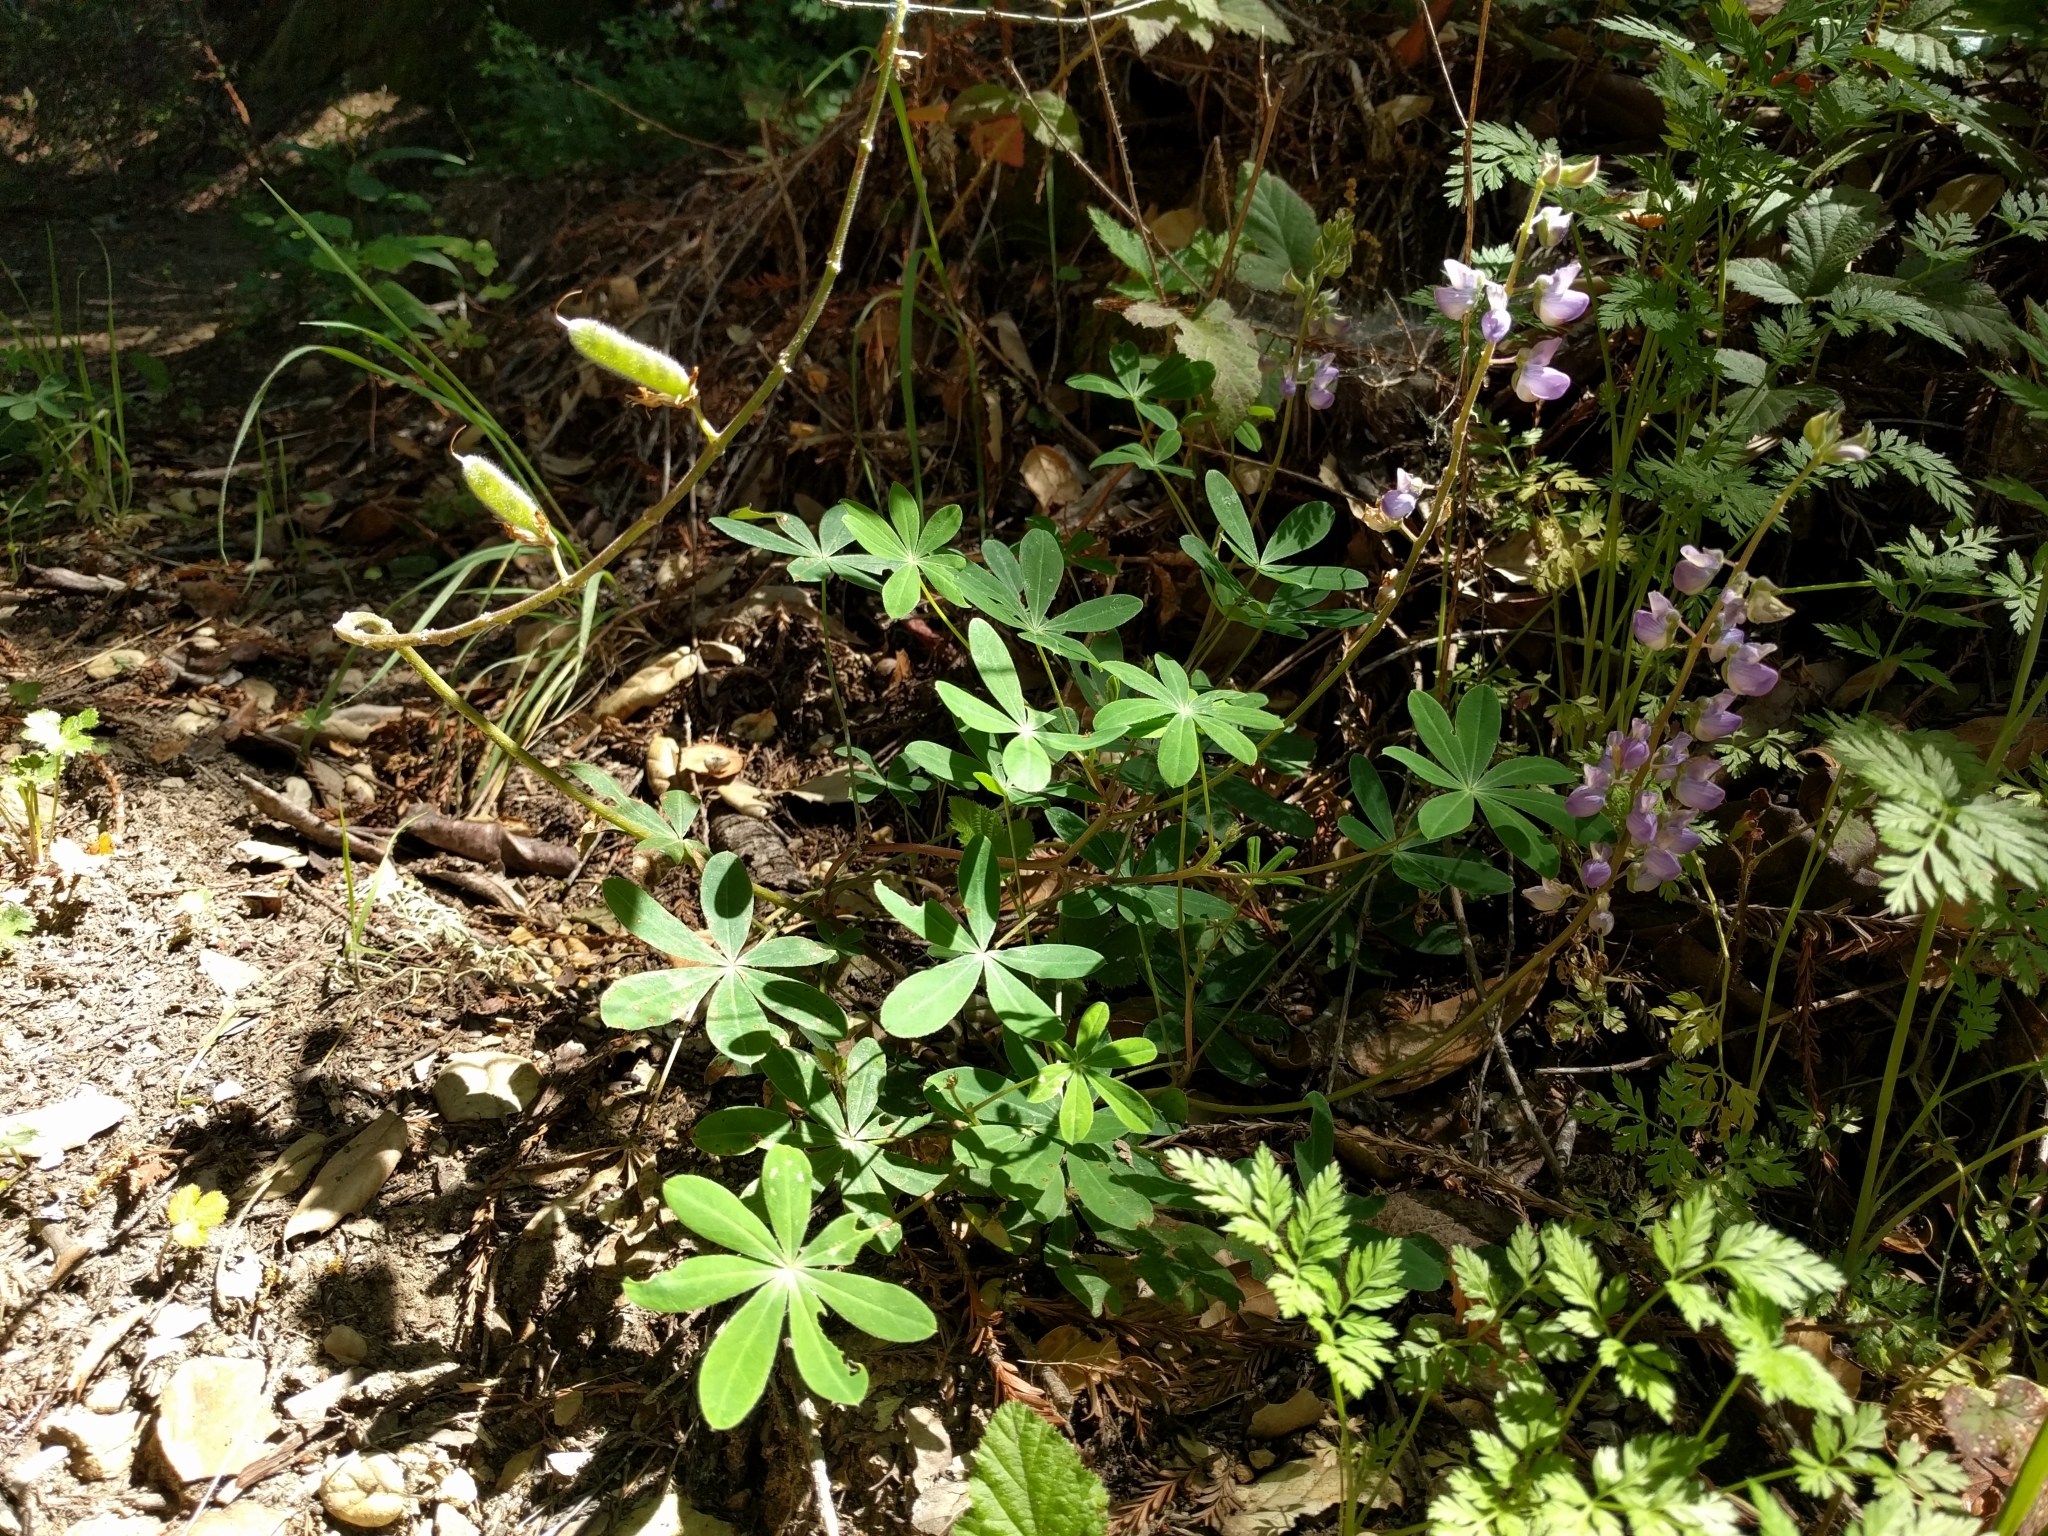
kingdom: Plantae
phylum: Tracheophyta
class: Magnoliopsida
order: Fabales
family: Fabaceae
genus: Lupinus
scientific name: Lupinus latifolius
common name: Broad-leaved lupine
